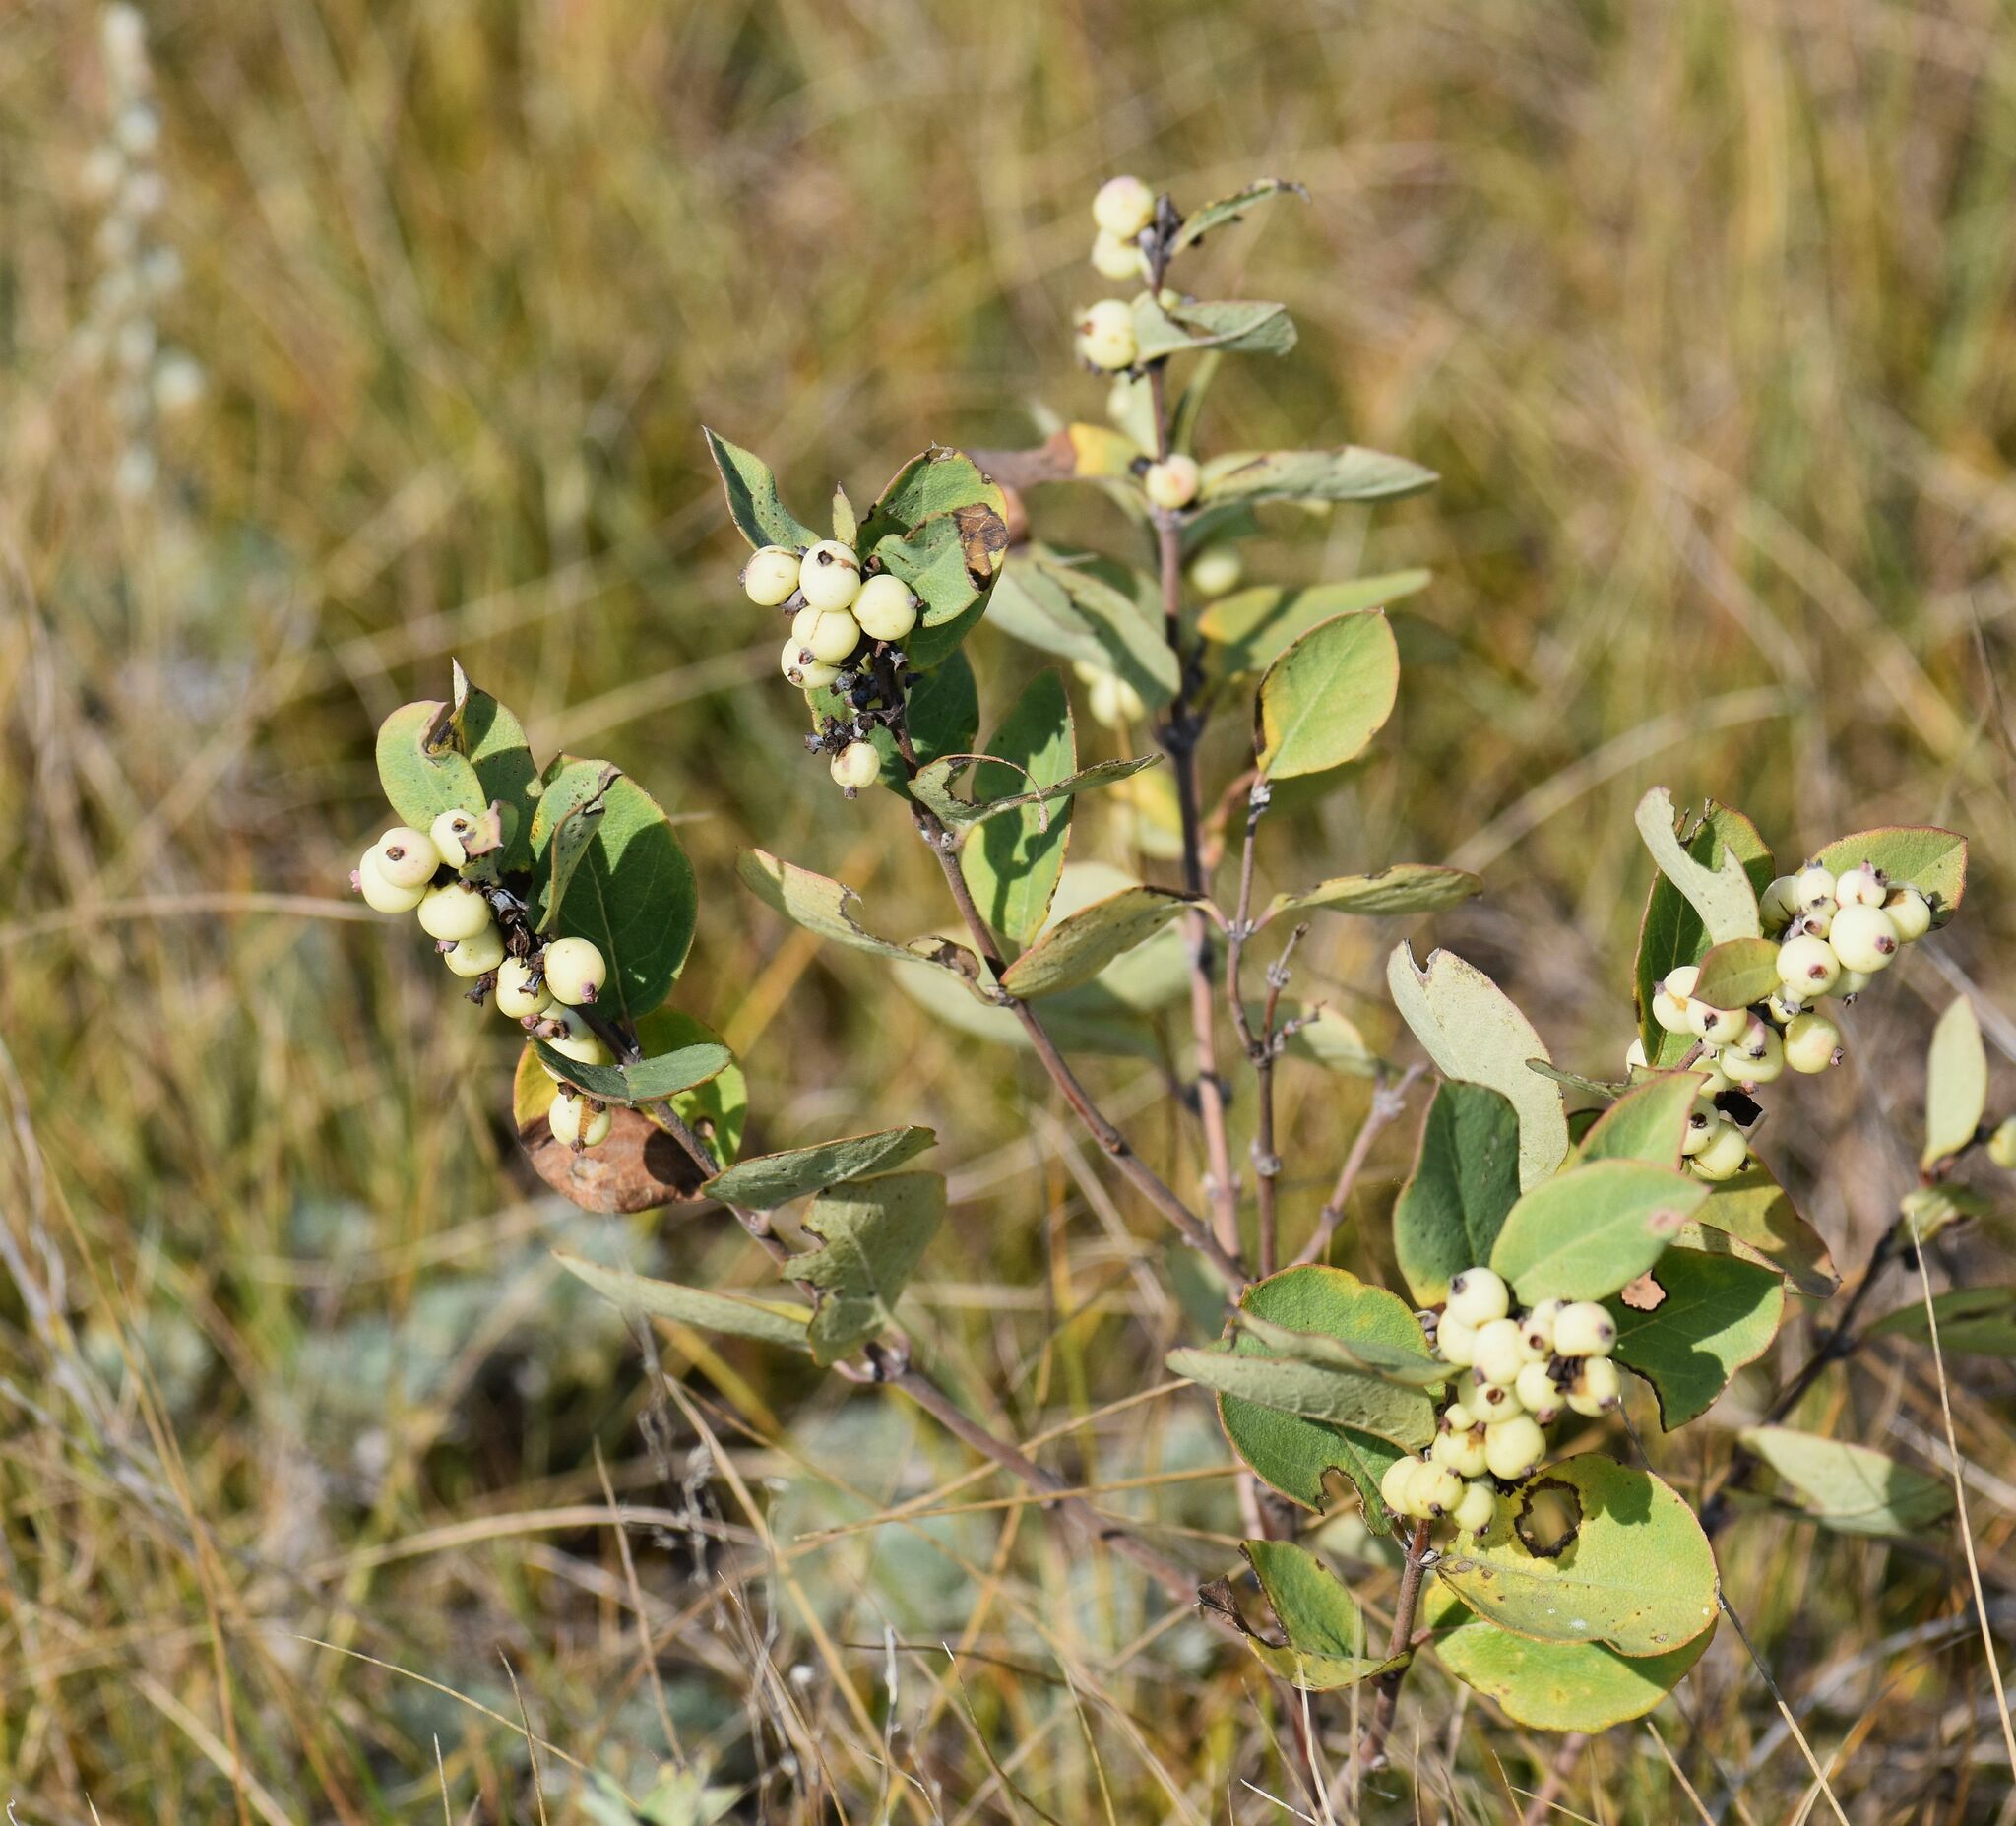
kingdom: Plantae
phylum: Tracheophyta
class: Magnoliopsida
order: Dipsacales
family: Caprifoliaceae
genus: Symphoricarpos
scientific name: Symphoricarpos occidentalis
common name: Wolfberry
